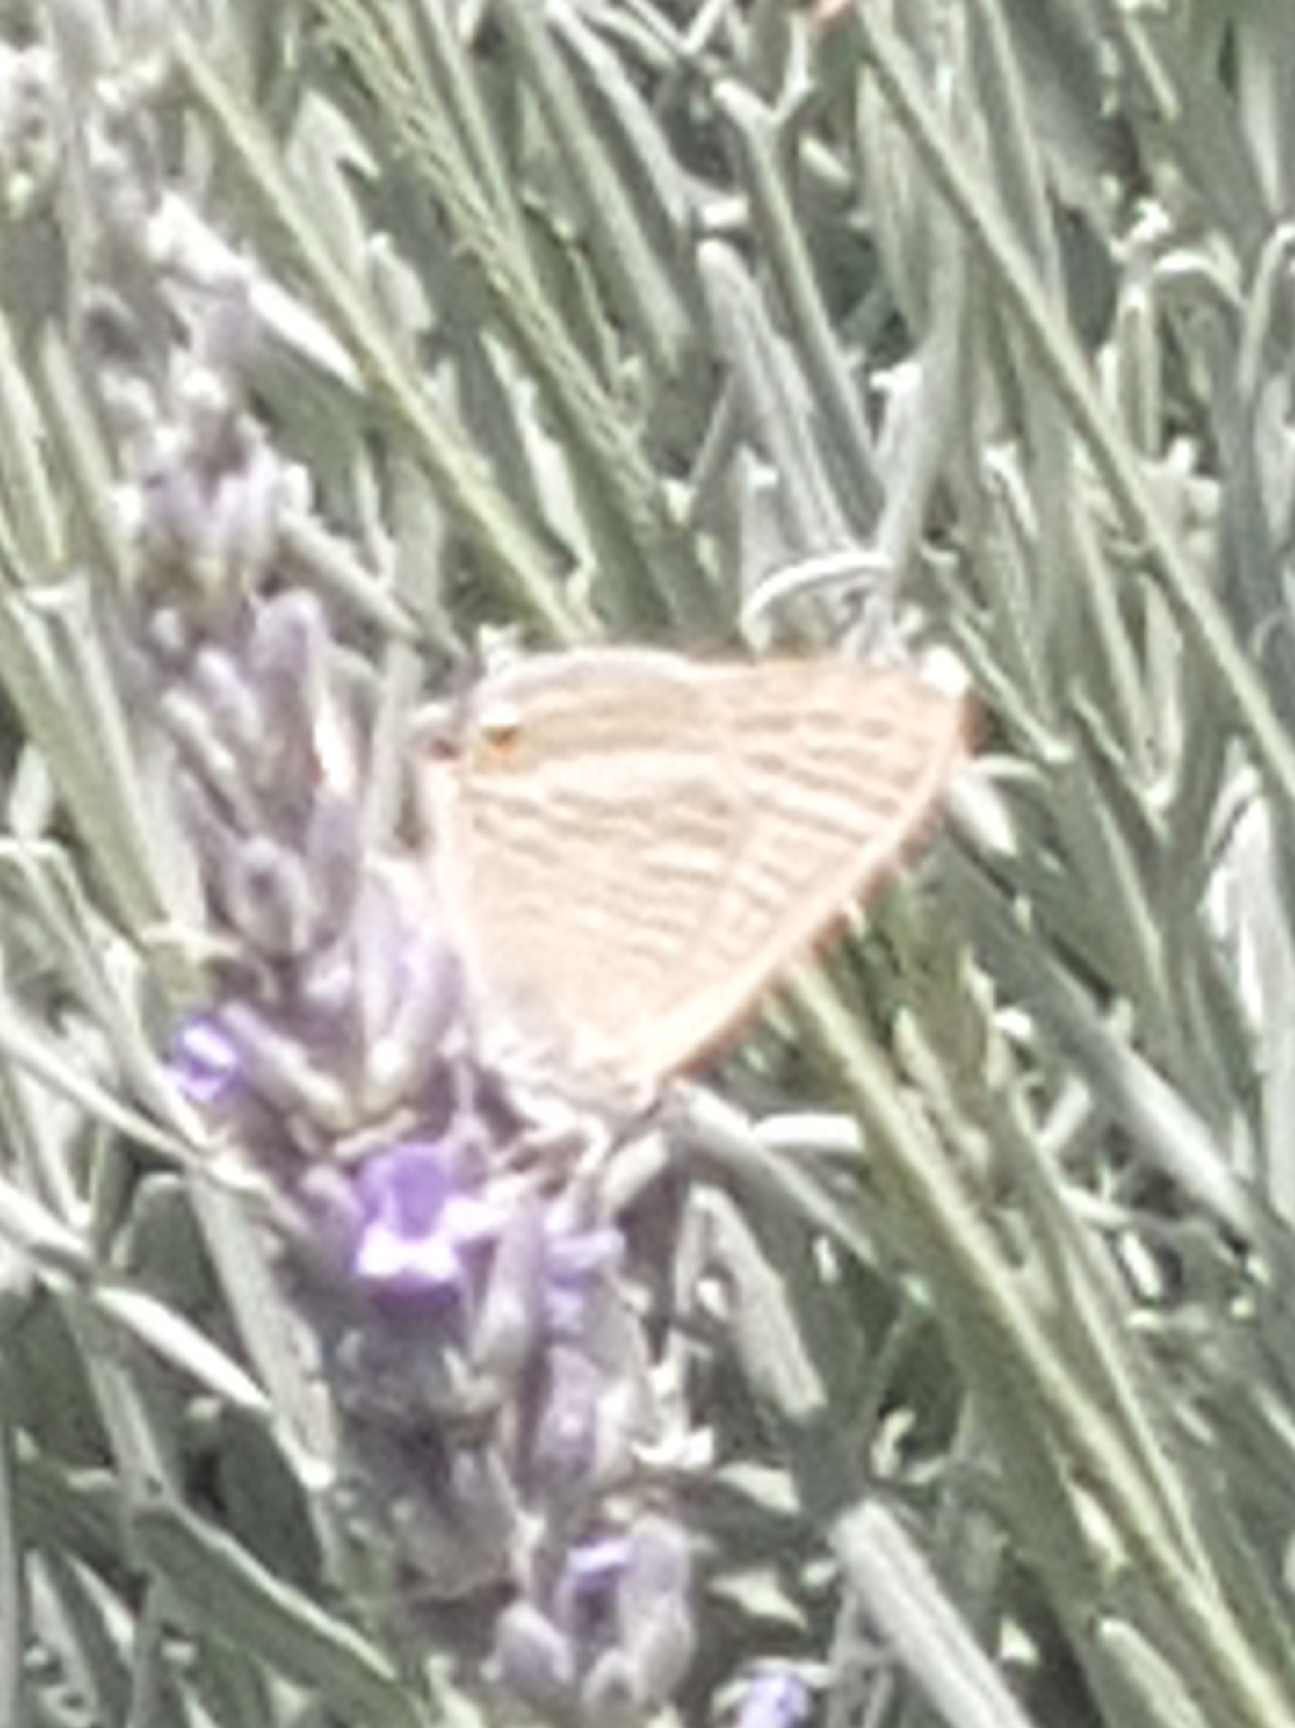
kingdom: Animalia
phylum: Arthropoda
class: Insecta
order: Lepidoptera
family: Lycaenidae
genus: Lampides
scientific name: Lampides boeticus
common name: Long-tailed blue
